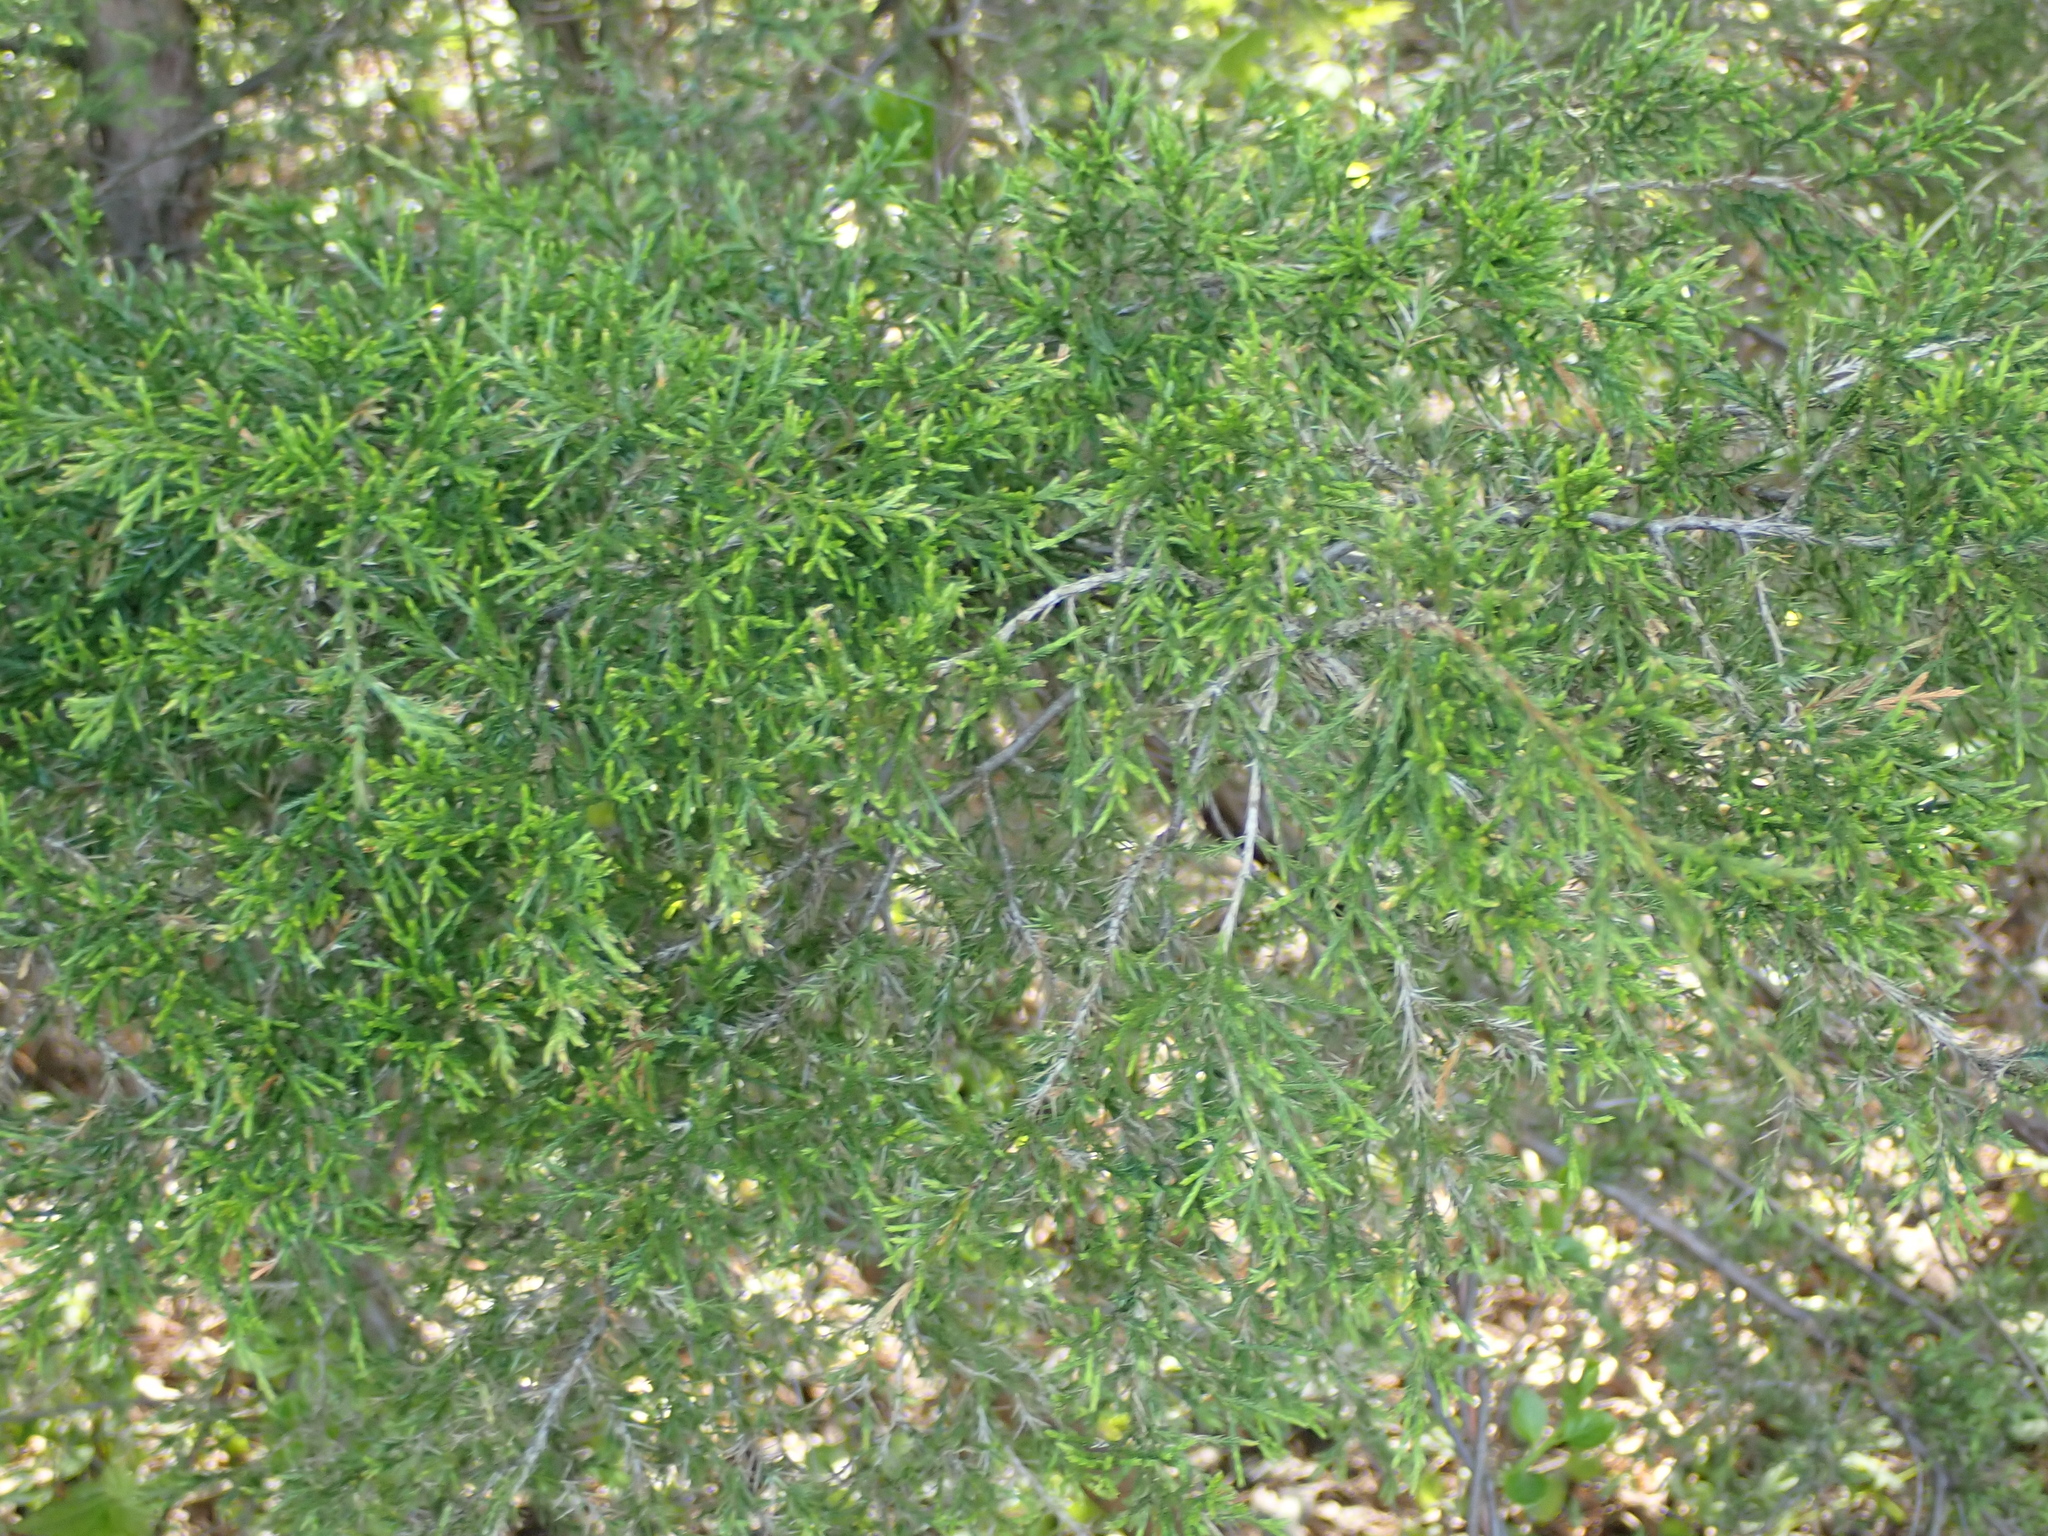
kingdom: Plantae
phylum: Tracheophyta
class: Pinopsida
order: Pinales
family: Cupressaceae
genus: Juniperus
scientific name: Juniperus virginiana
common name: Red juniper
